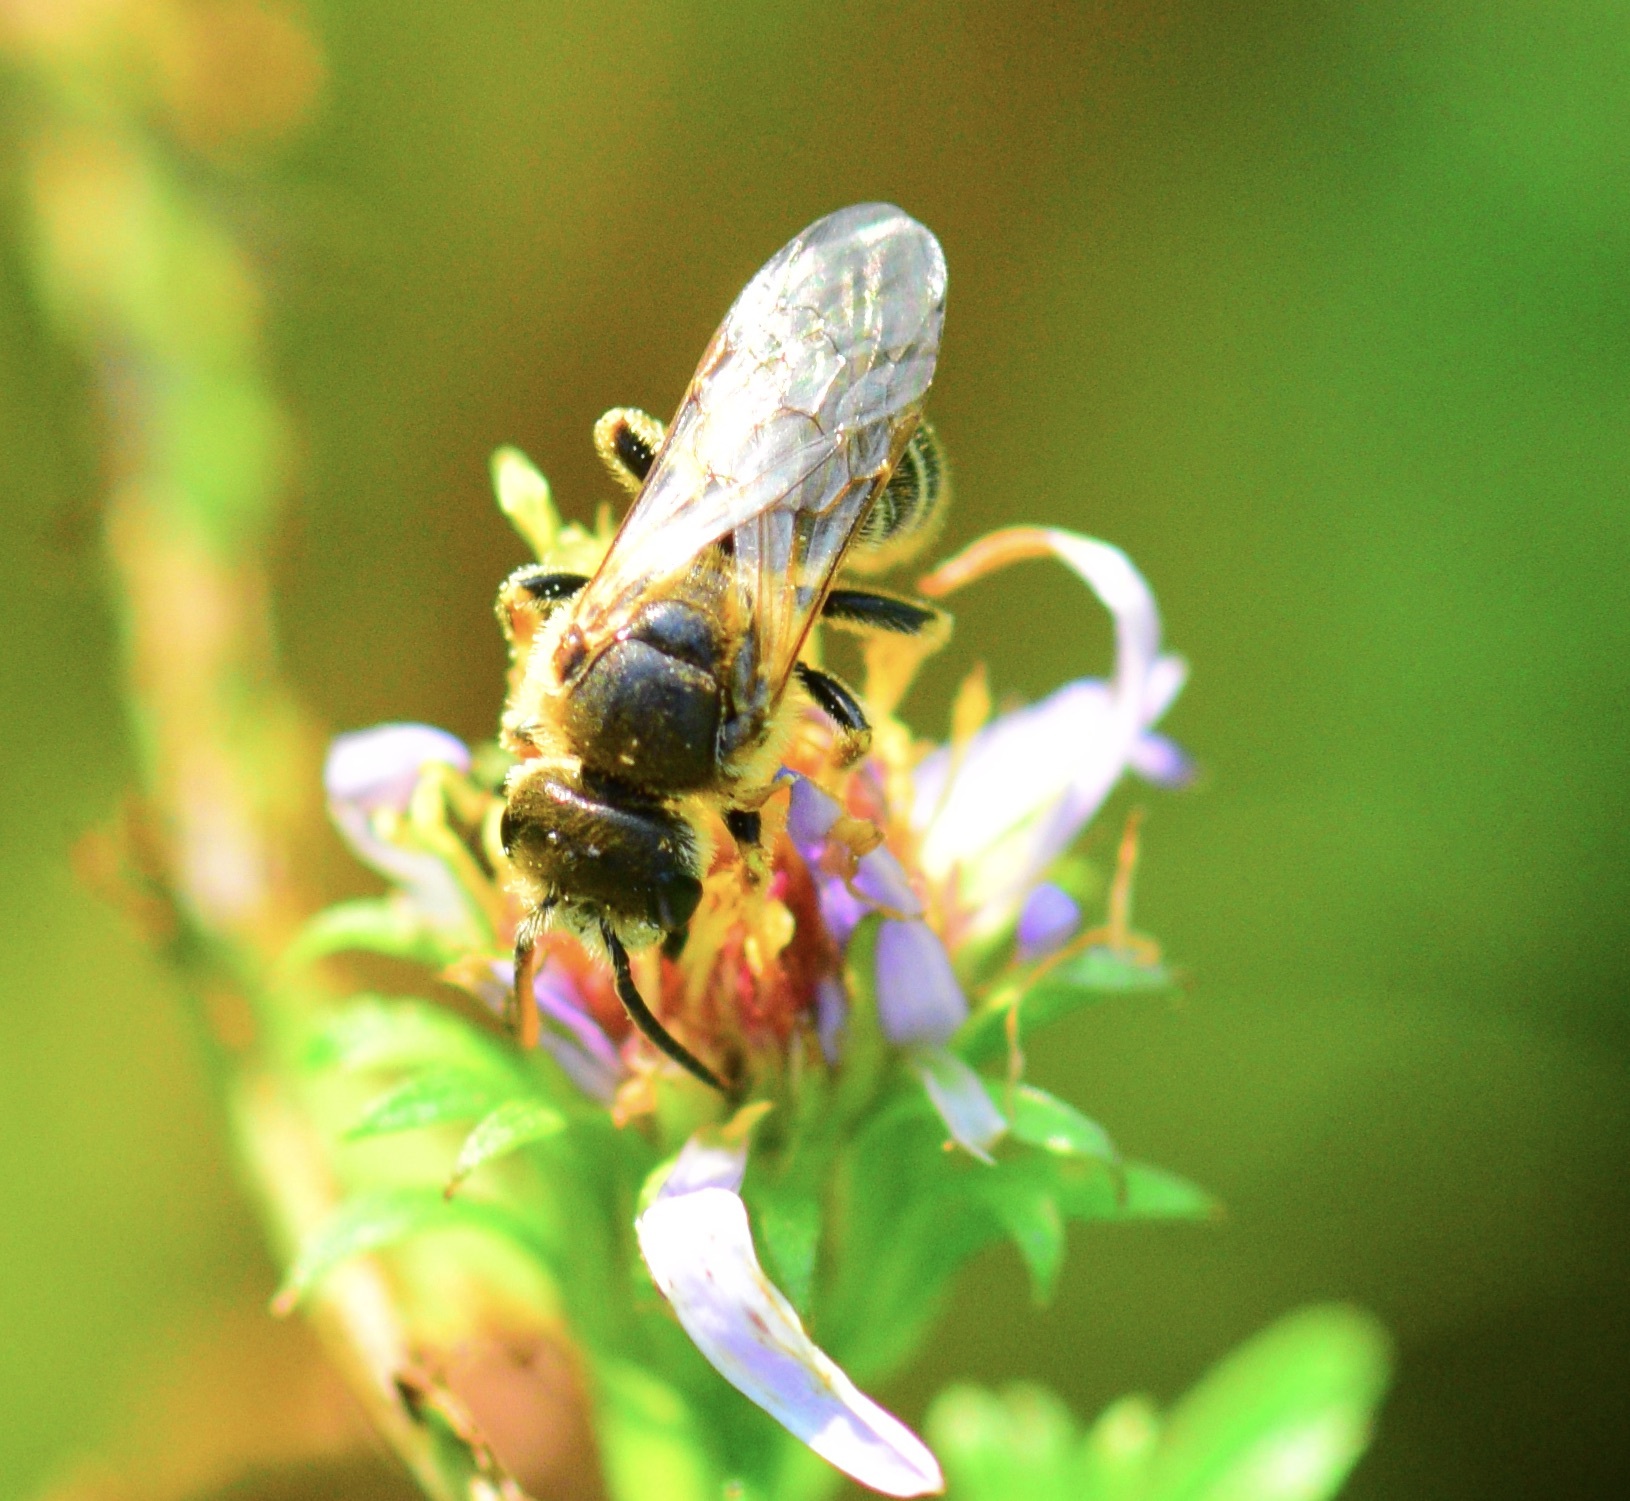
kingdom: Animalia
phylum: Arthropoda
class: Insecta
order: Hymenoptera
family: Halictidae
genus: Halictus
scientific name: Halictus ligatus
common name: Ligated furrow bee
